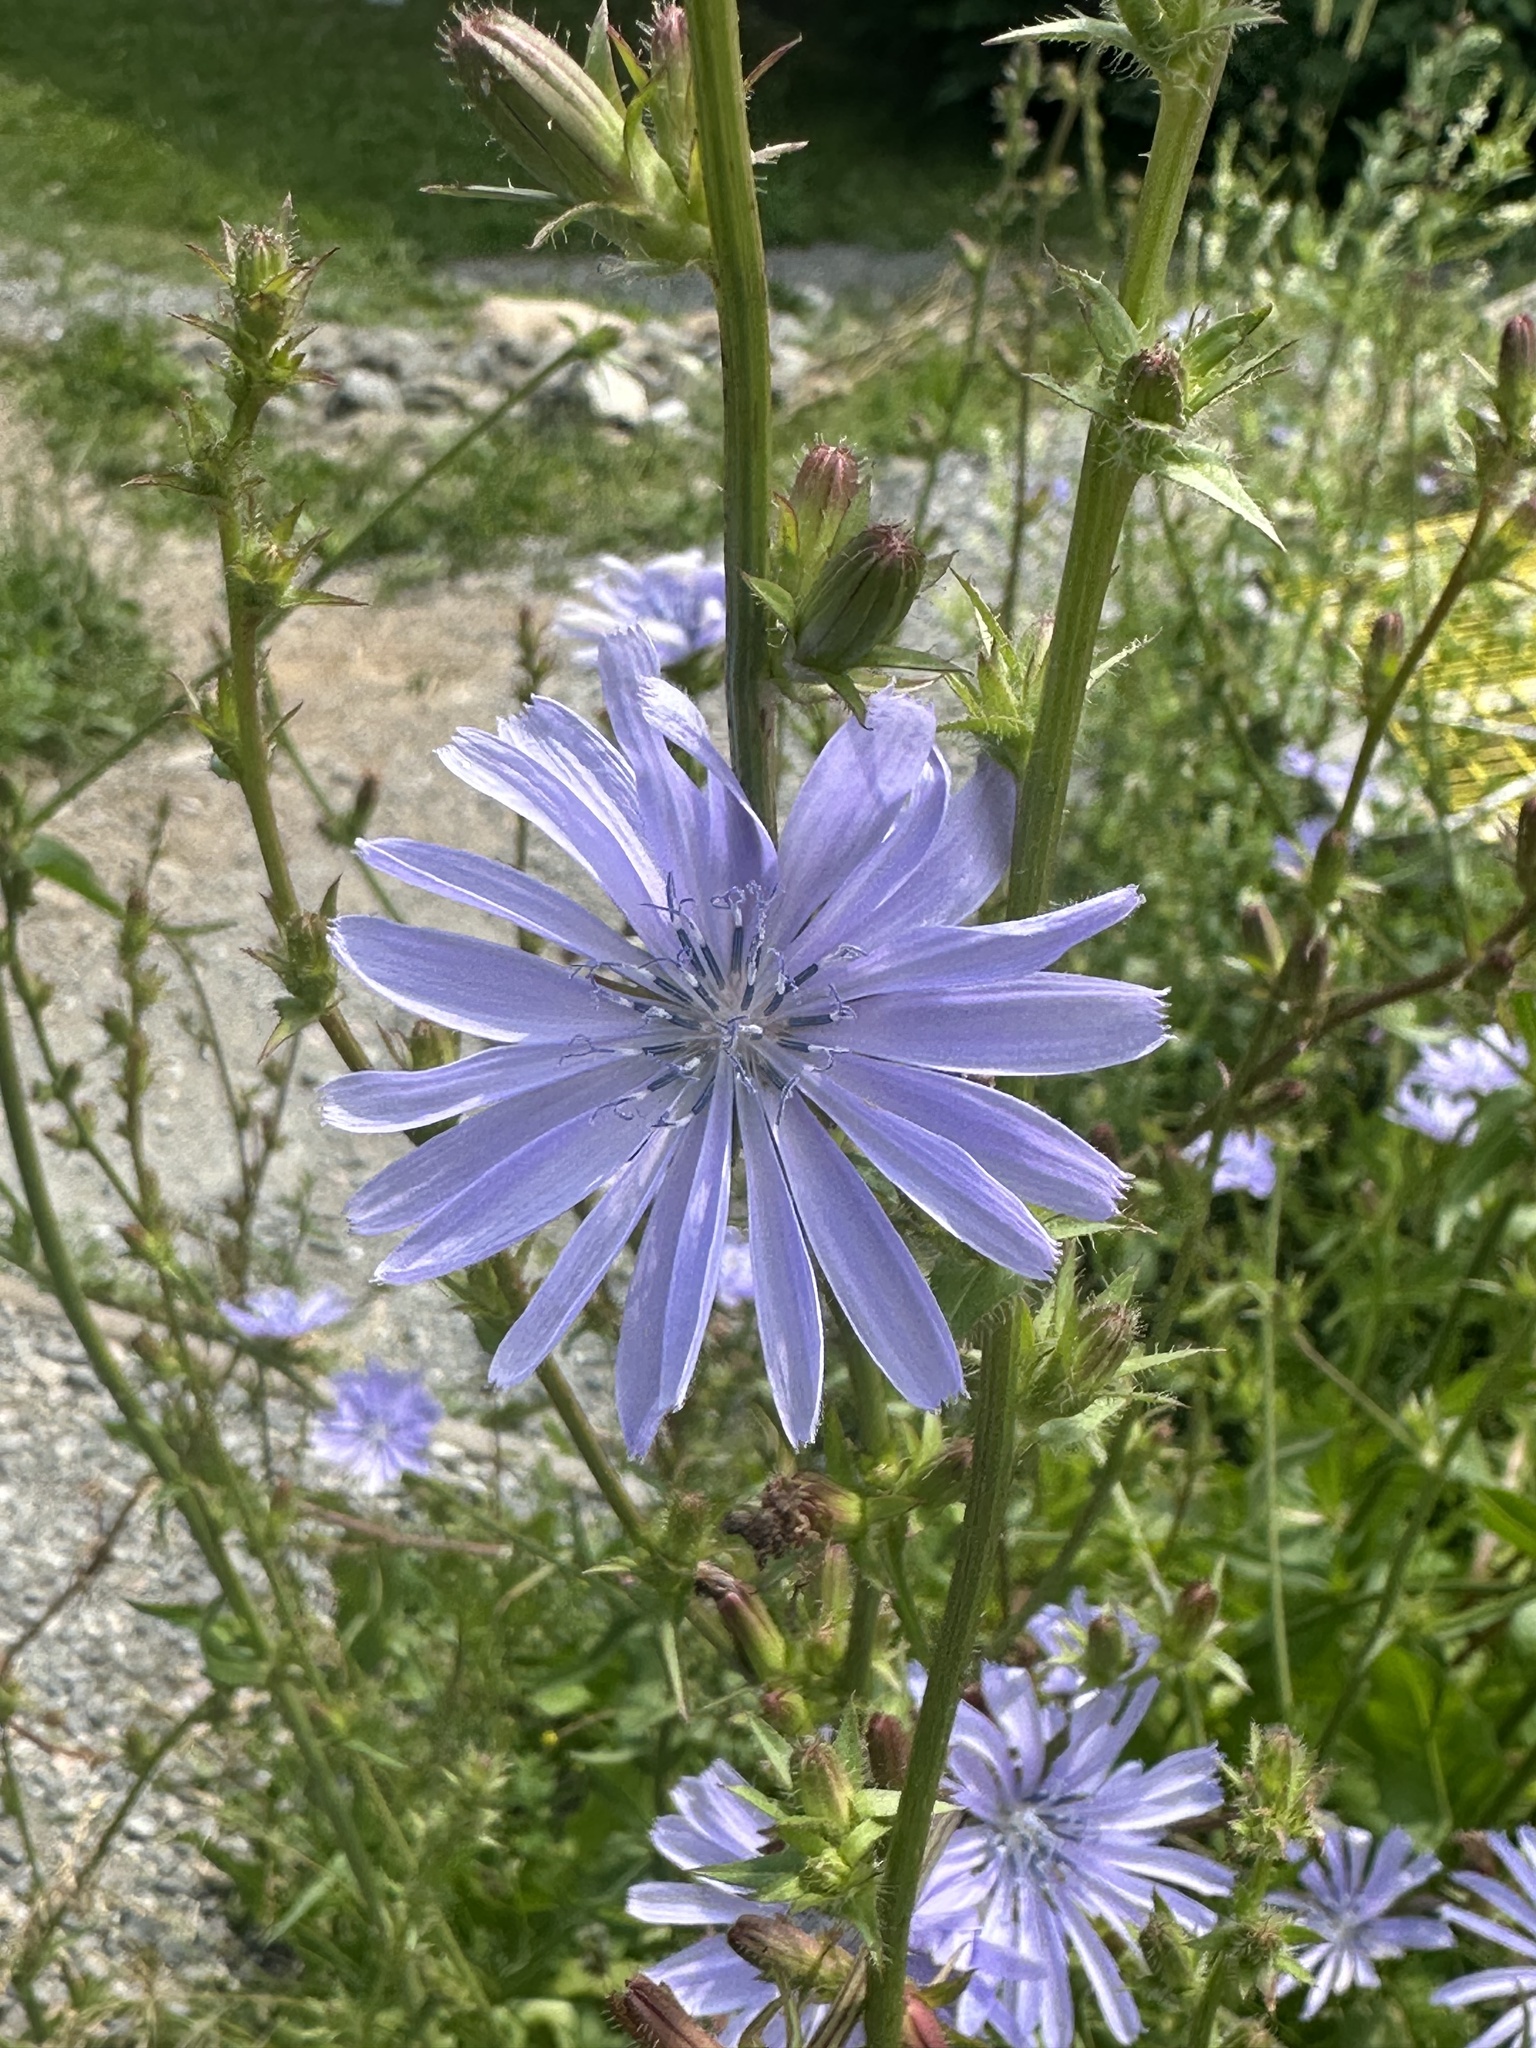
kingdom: Plantae
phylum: Tracheophyta
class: Magnoliopsida
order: Asterales
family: Asteraceae
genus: Cichorium
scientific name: Cichorium intybus
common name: Chicory
